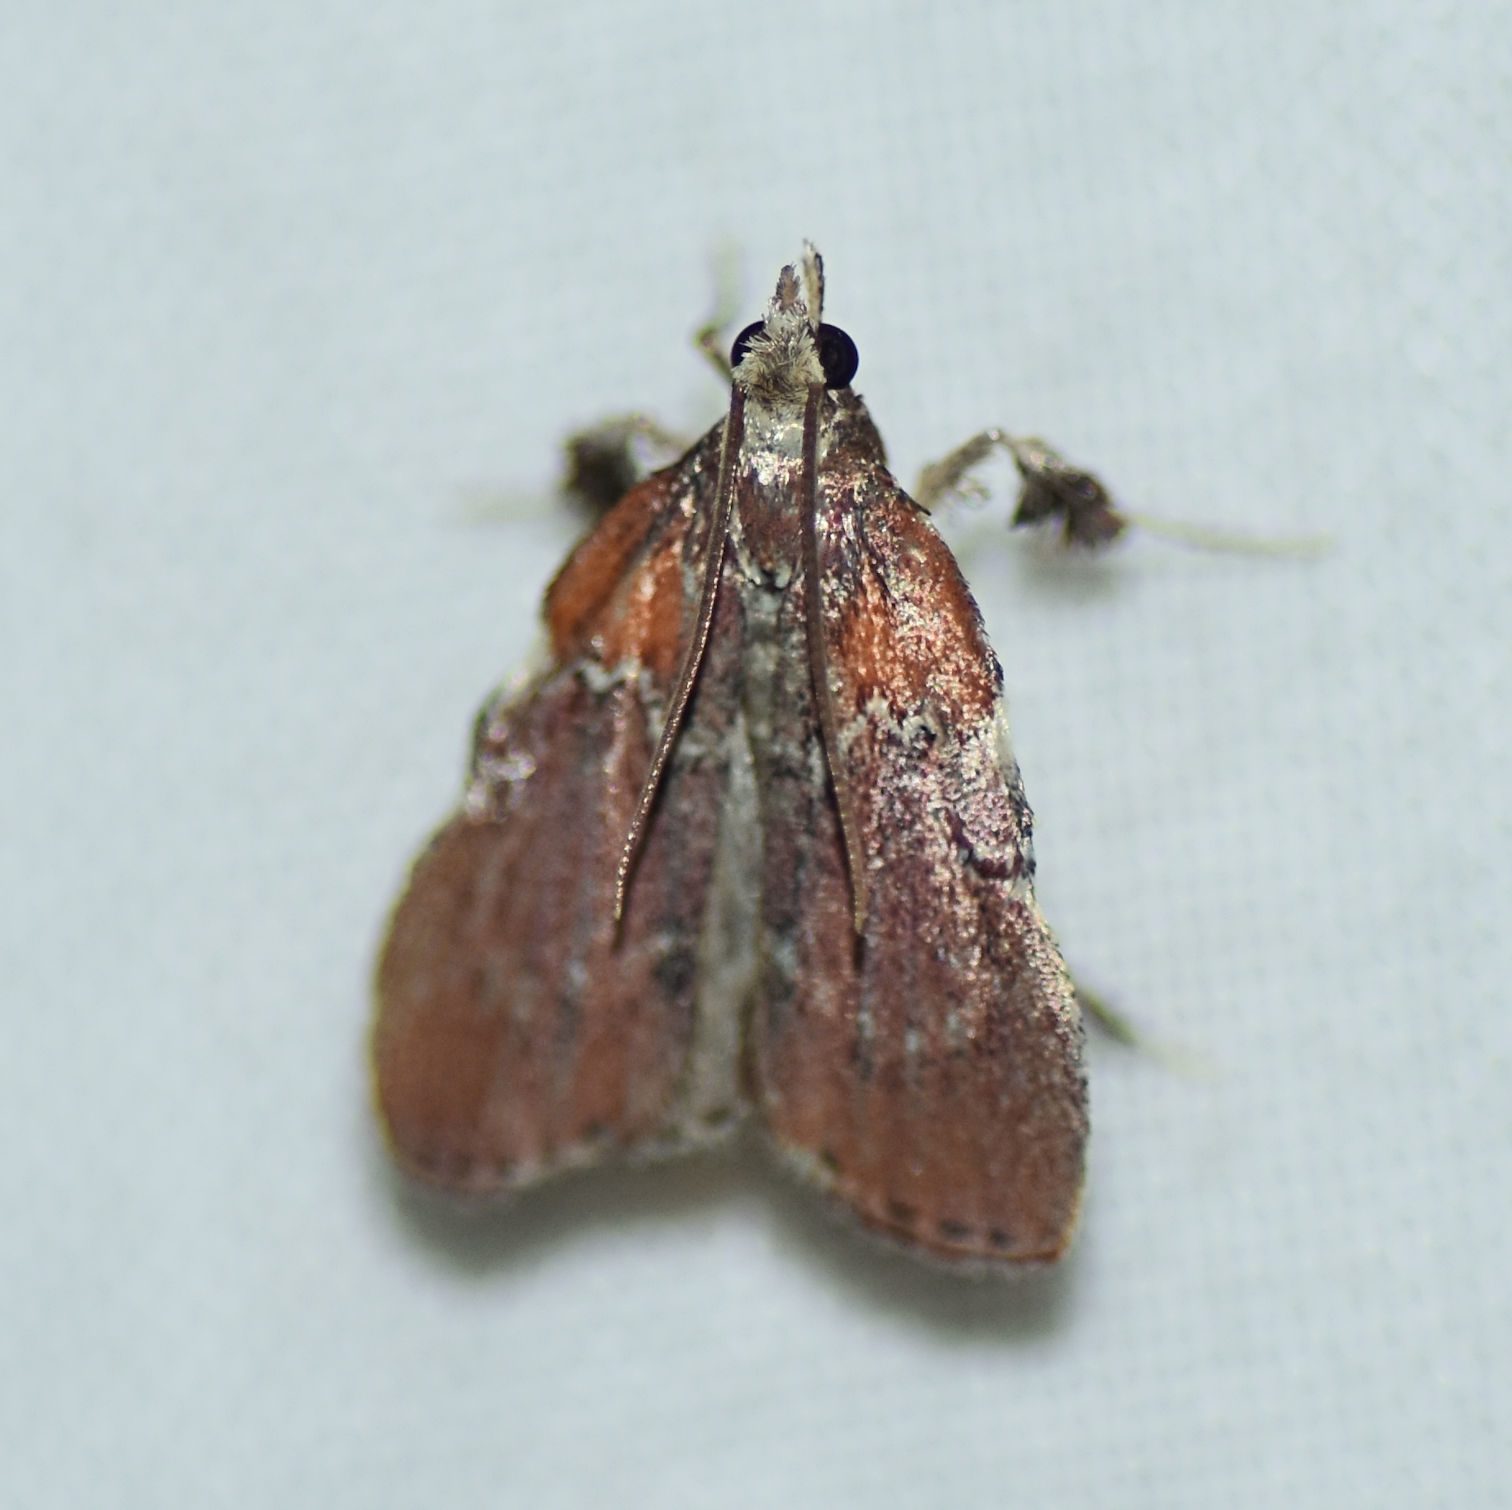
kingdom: Animalia
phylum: Arthropoda
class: Insecta
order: Lepidoptera
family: Pyralidae
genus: Galasa
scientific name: Galasa nigrinodis
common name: Boxwood leaftier moth
